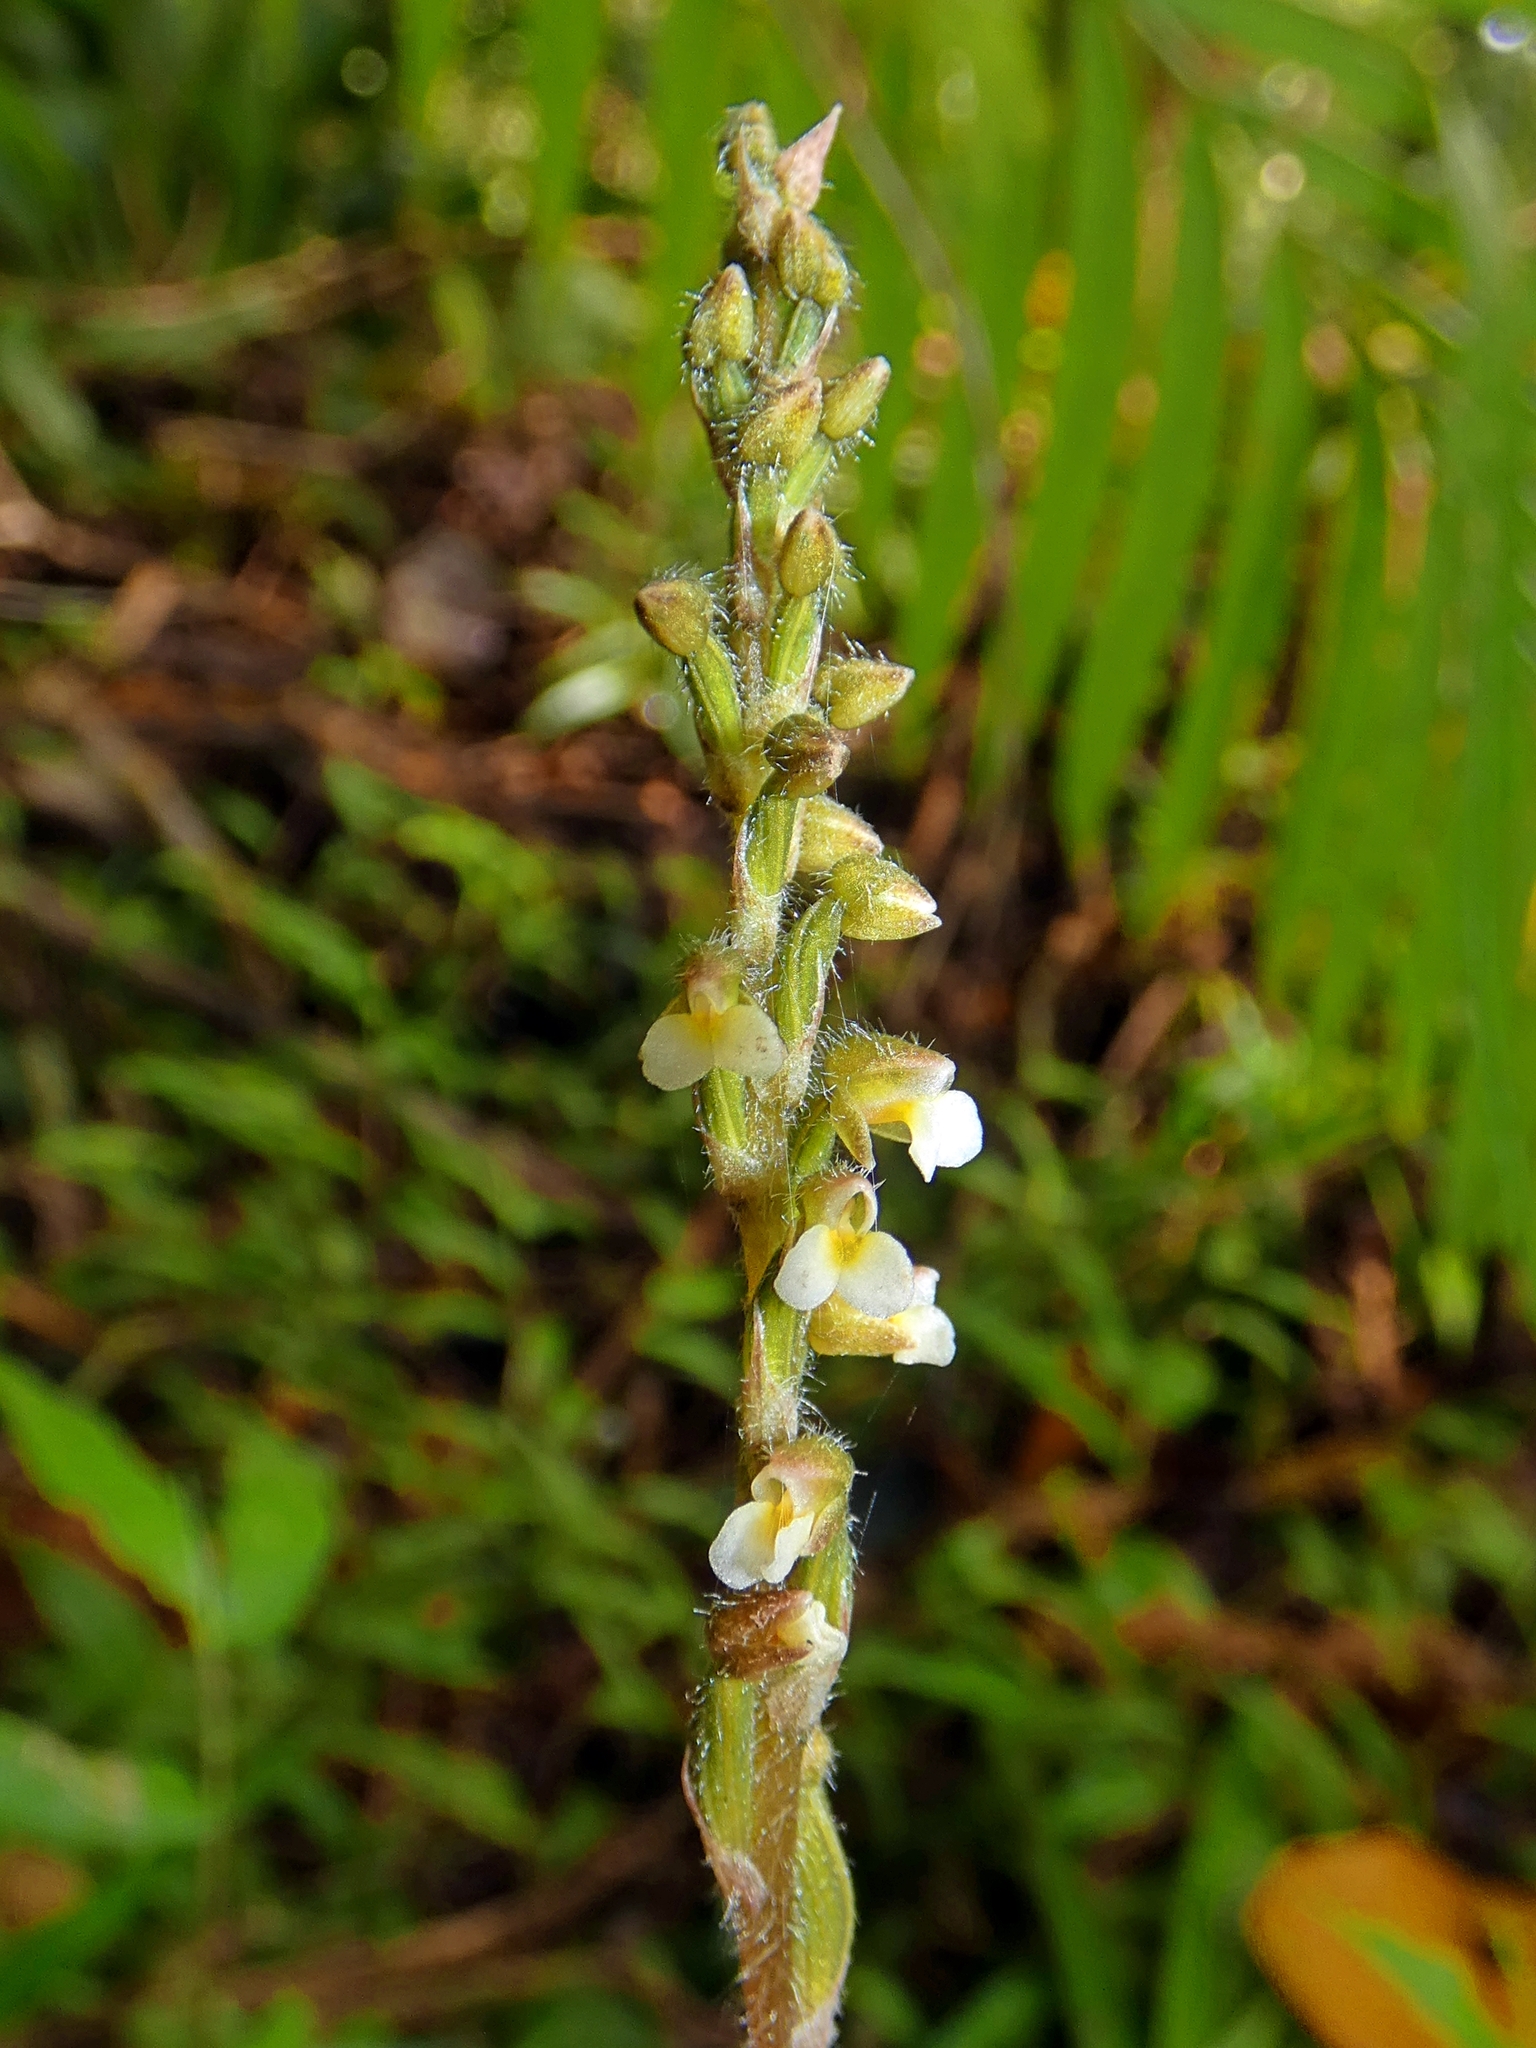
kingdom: Plantae
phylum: Tracheophyta
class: Liliopsida
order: Asparagales
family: Orchidaceae
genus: Zeuxine
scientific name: Zeuxine oblonga
